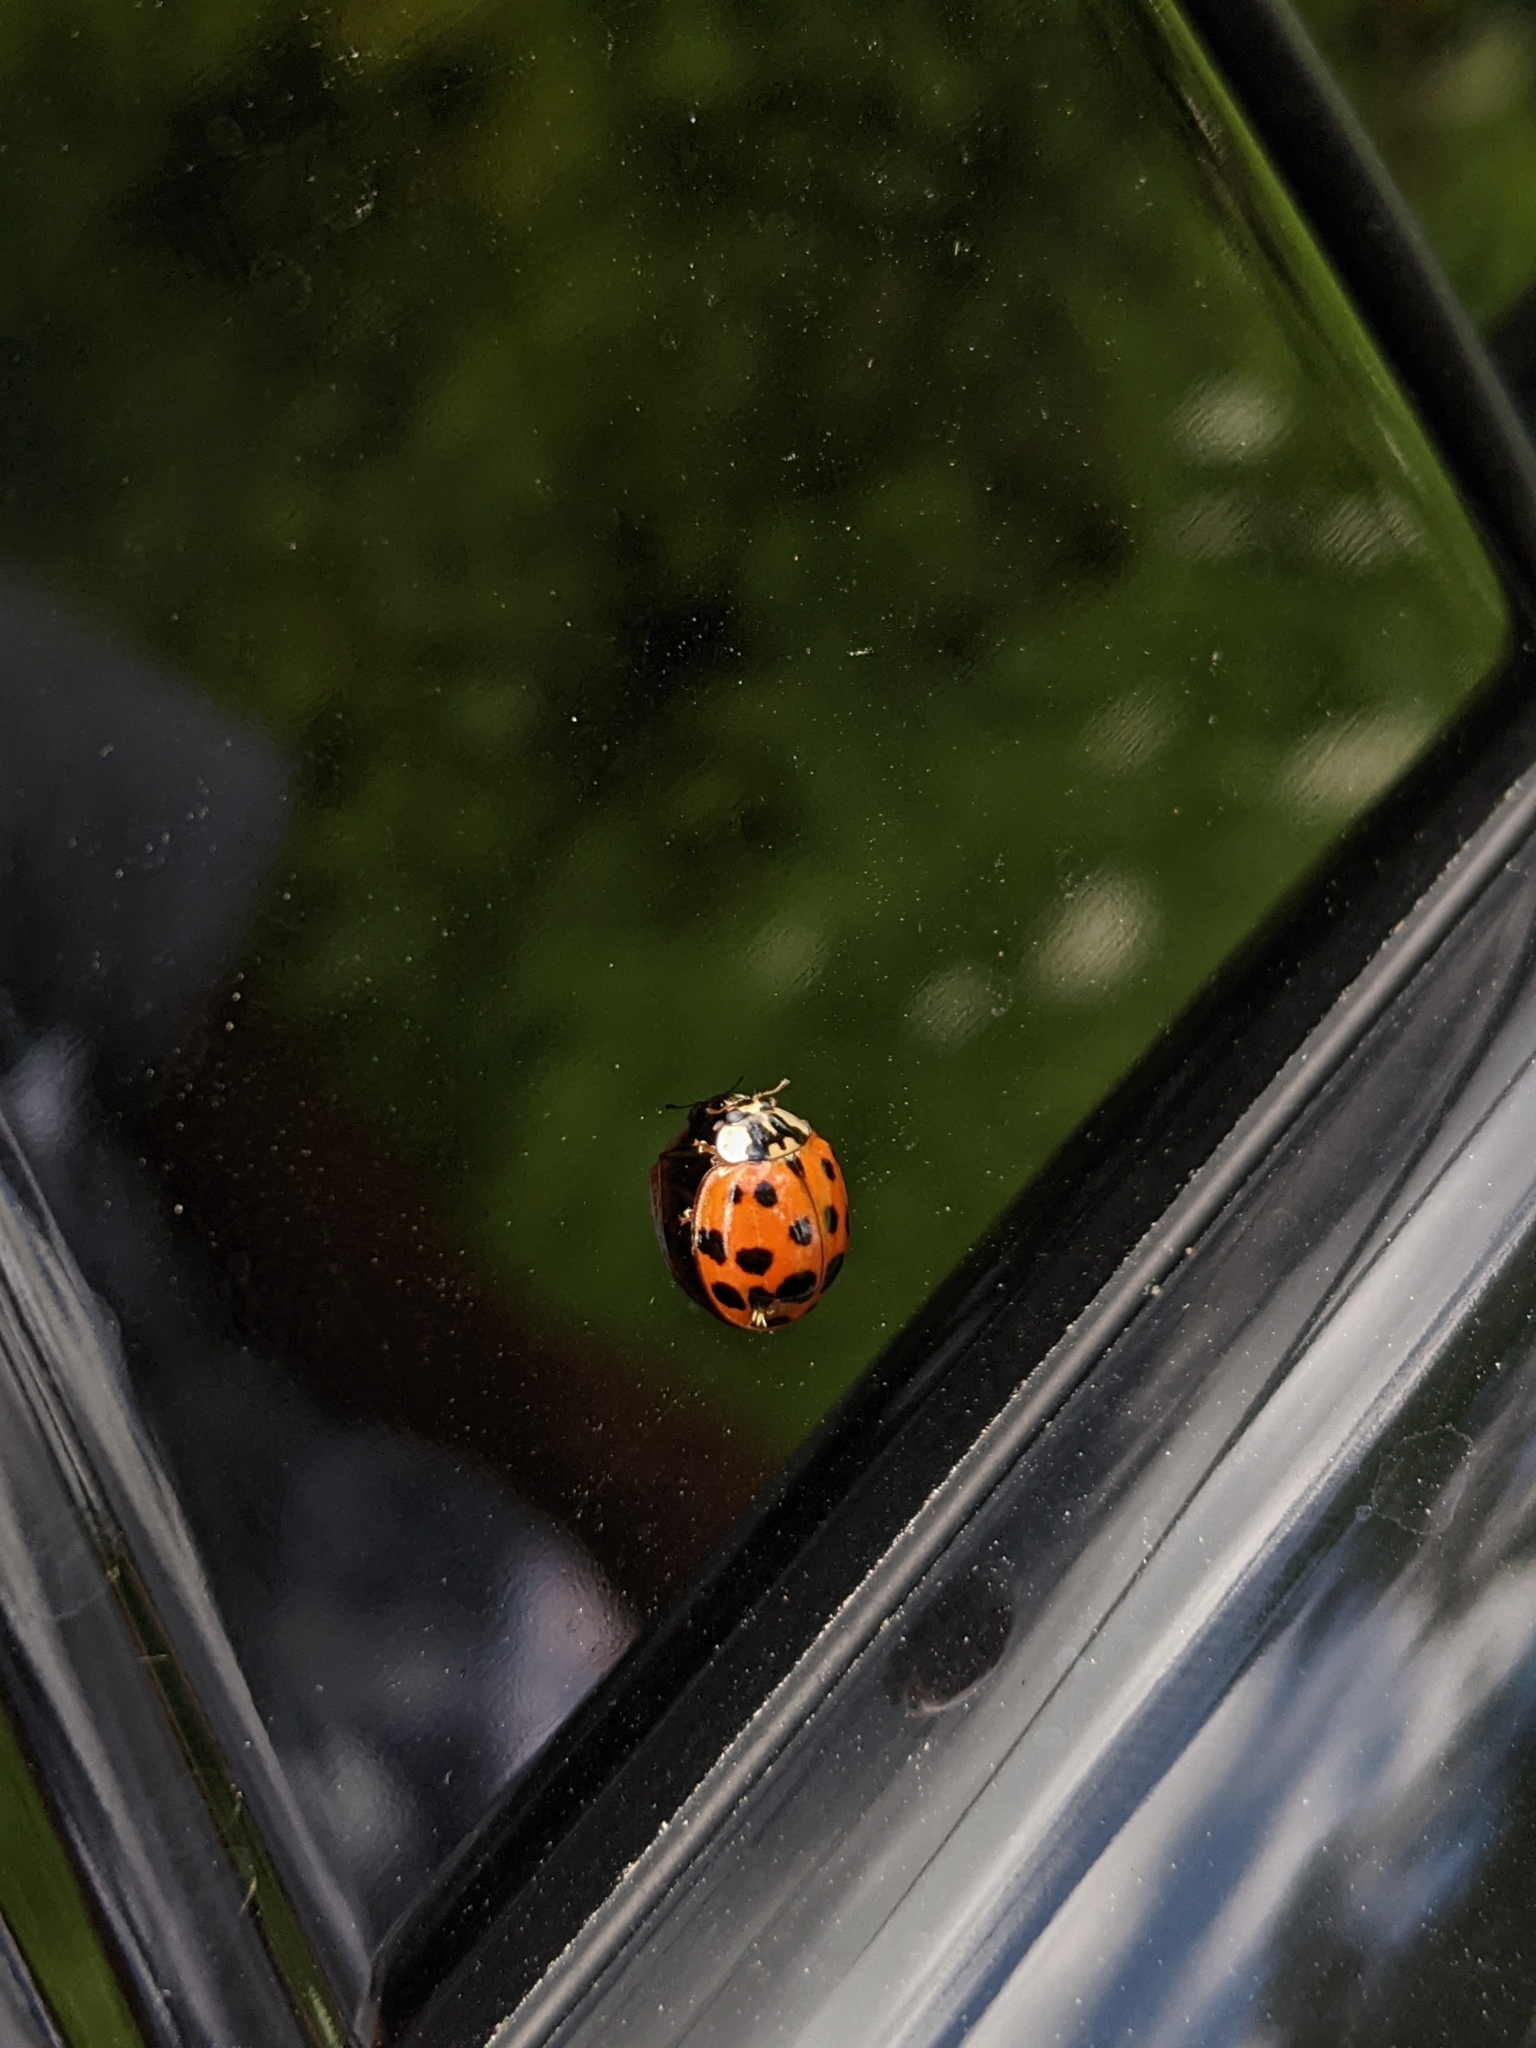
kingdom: Fungi
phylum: Ascomycota
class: Laboulbeniomycetes
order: Laboulbeniales
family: Laboulbeniaceae
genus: Hesperomyces
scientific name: Hesperomyces harmoniae
